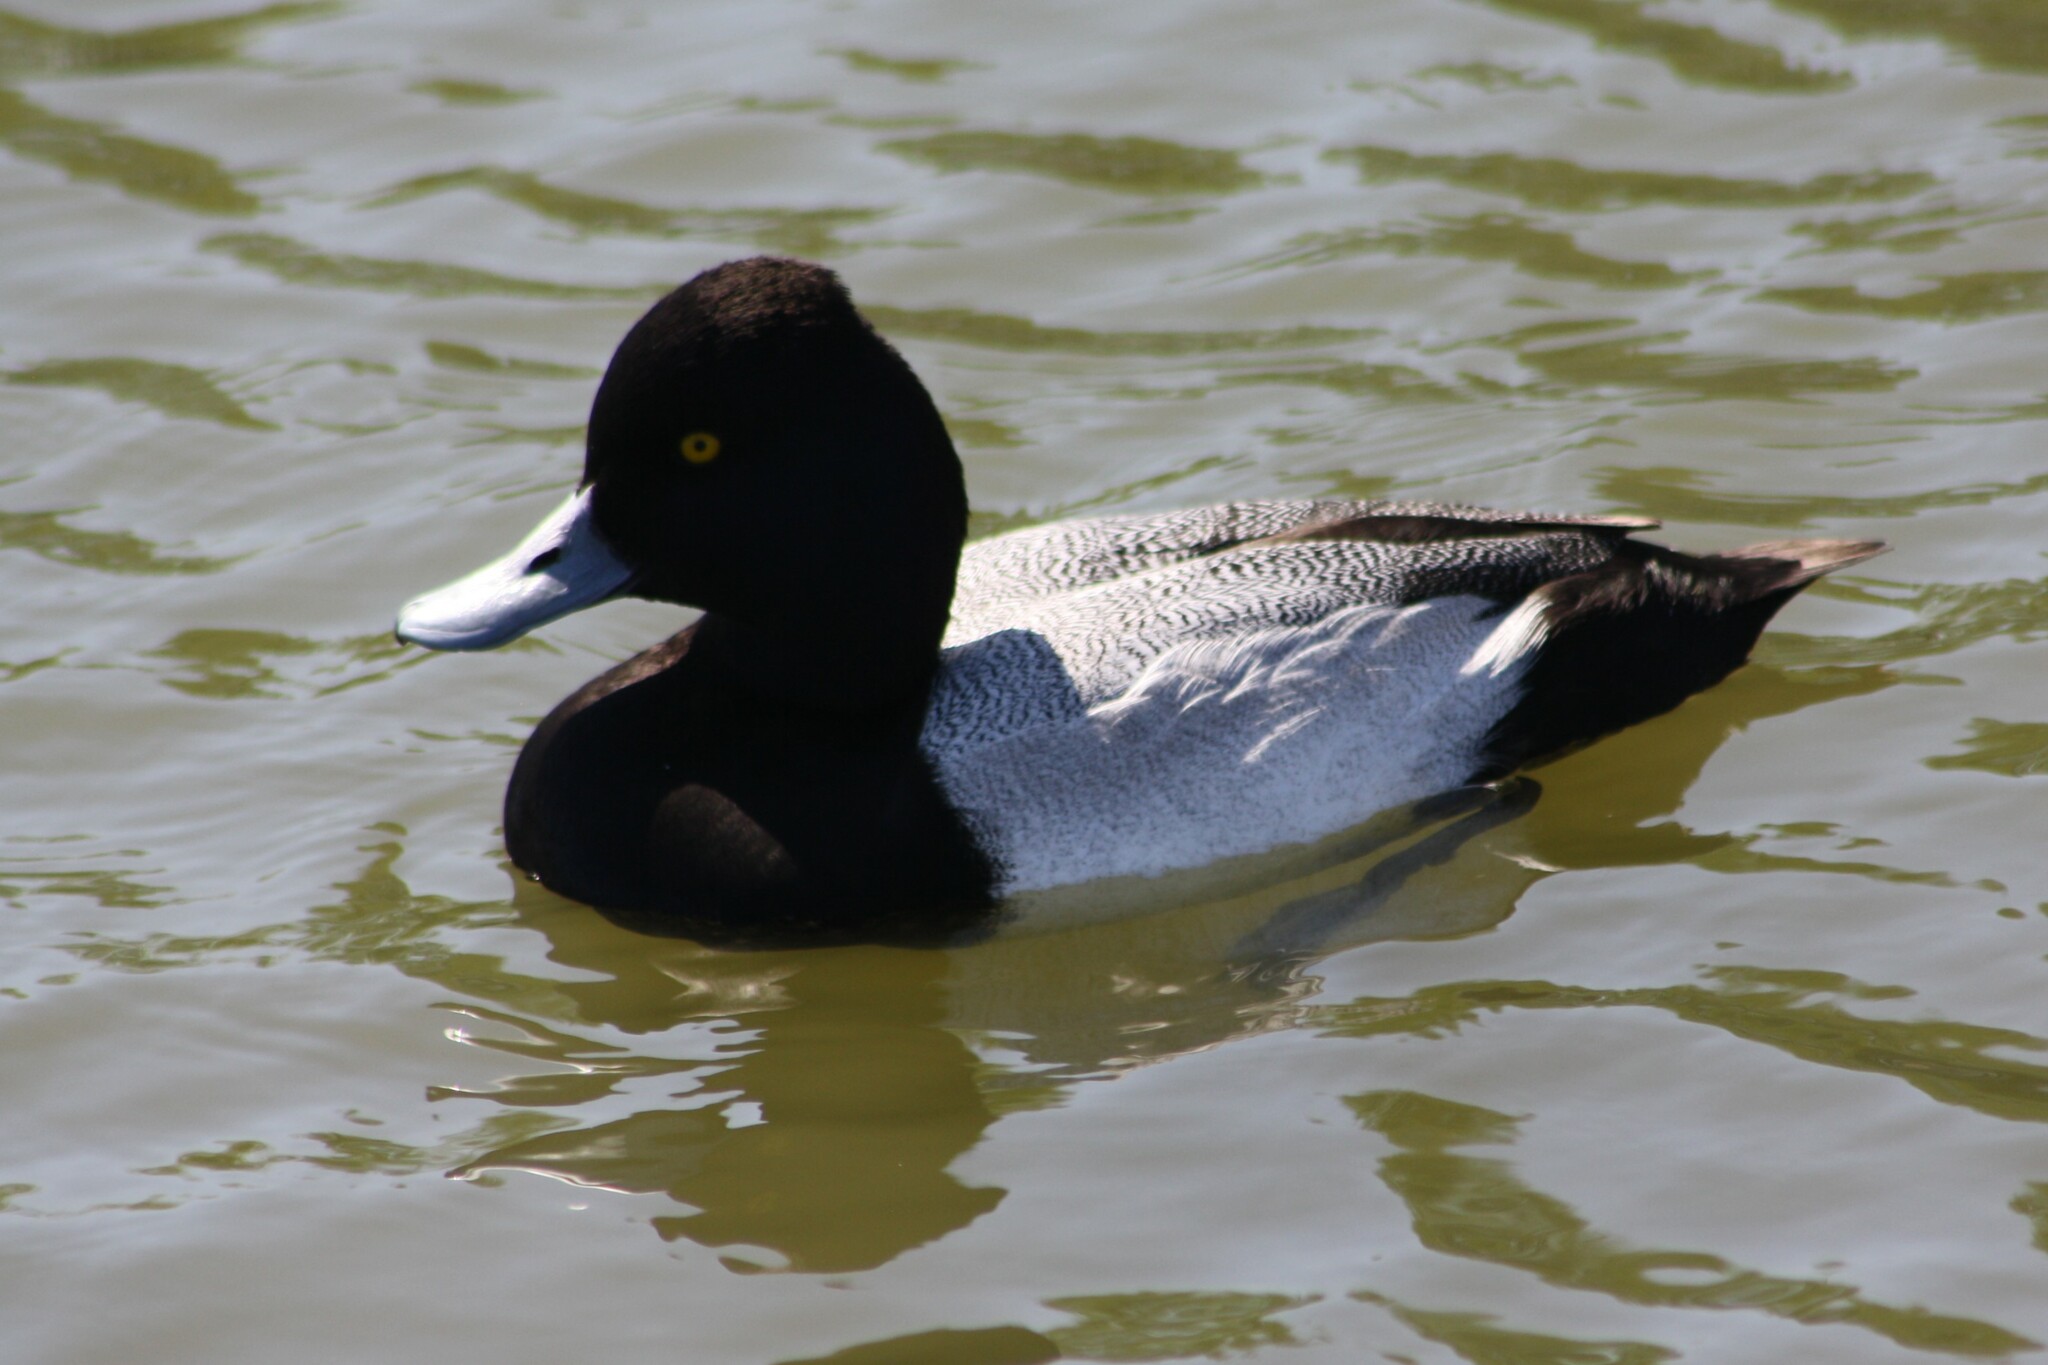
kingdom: Animalia
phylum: Chordata
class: Aves
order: Anseriformes
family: Anatidae
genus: Aythya
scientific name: Aythya affinis
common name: Lesser scaup
